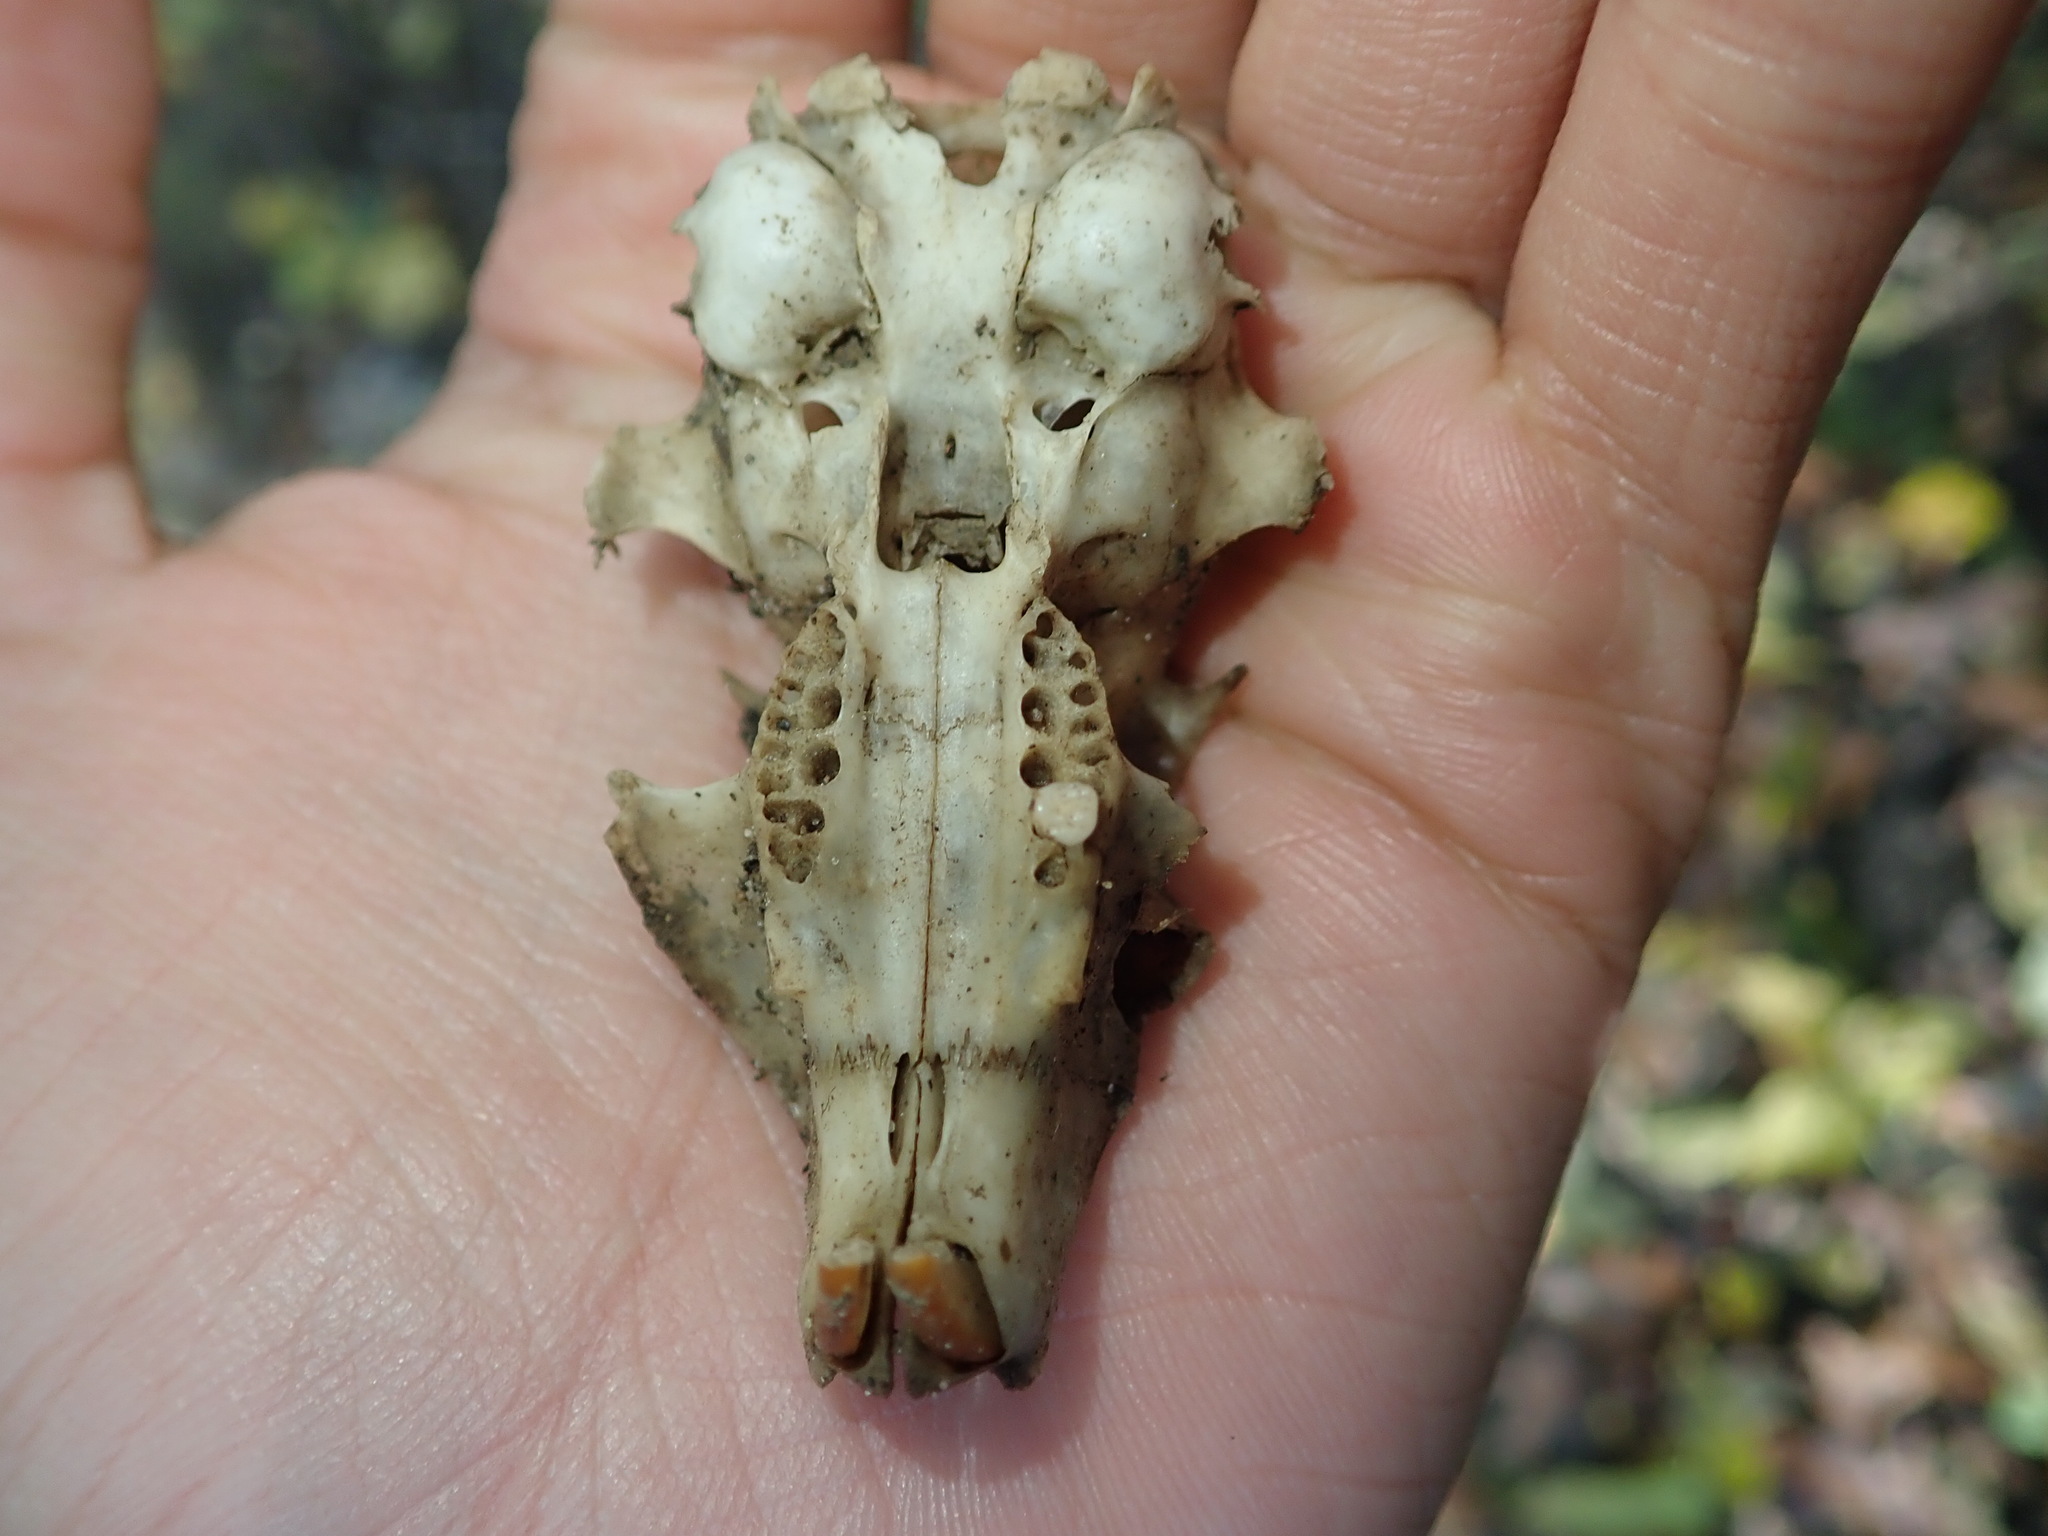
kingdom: Animalia
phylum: Chordata
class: Mammalia
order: Rodentia
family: Sciuridae
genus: Sciurus
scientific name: Sciurus carolinensis
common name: Eastern gray squirrel
